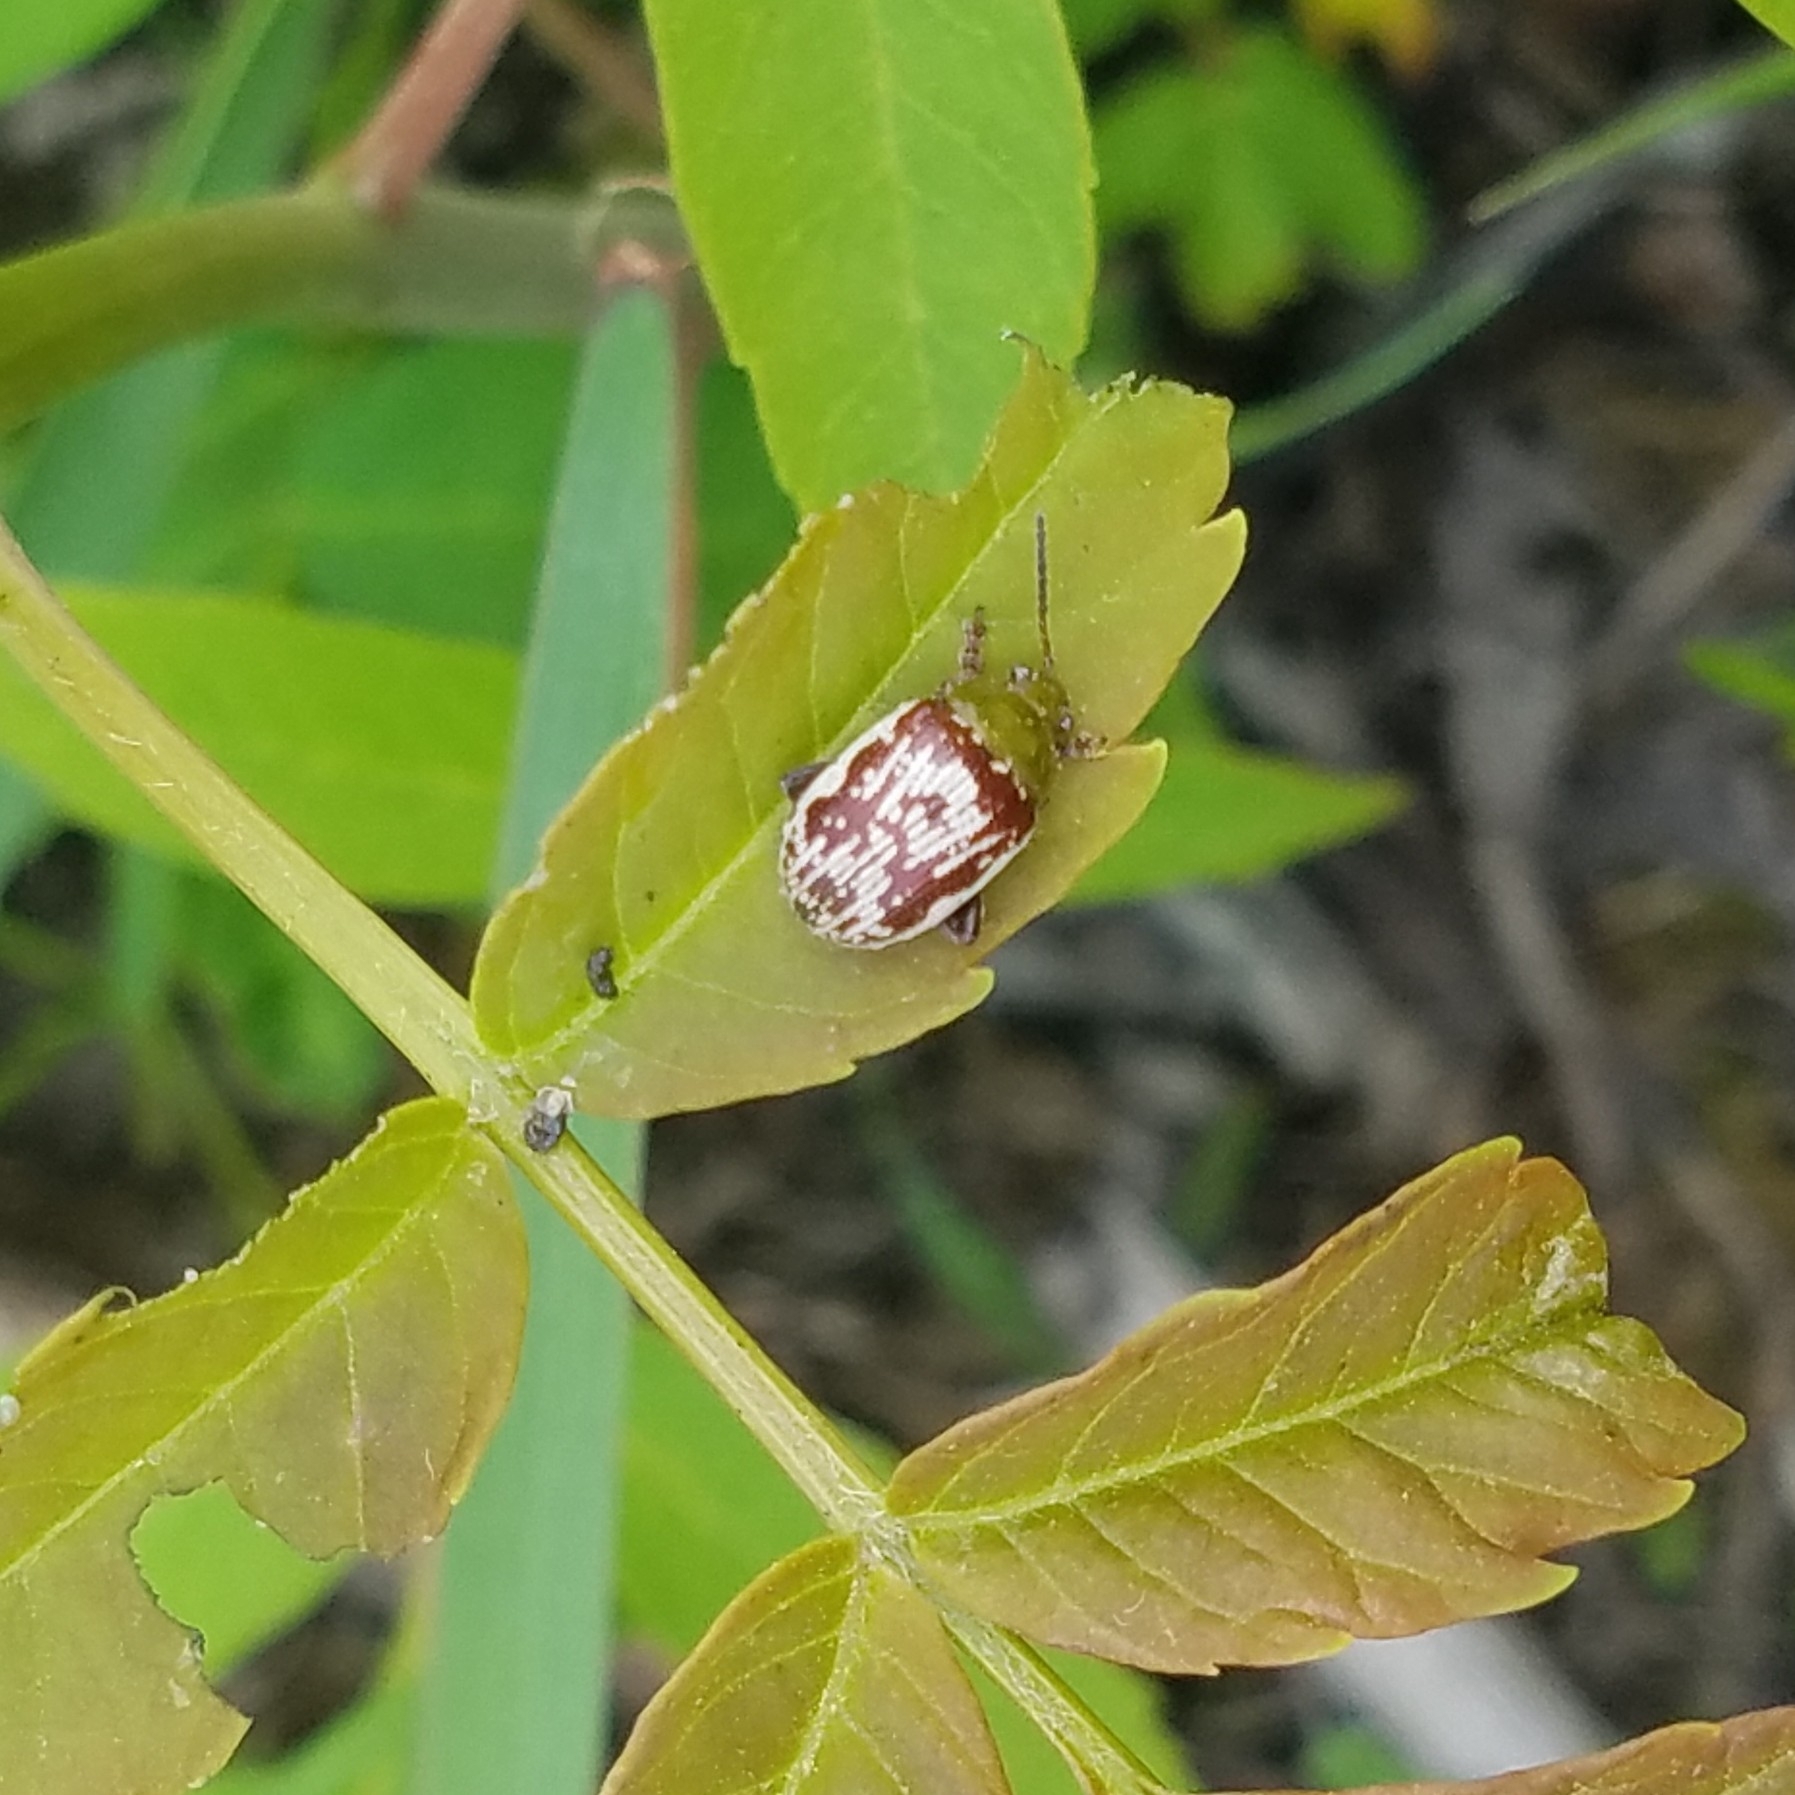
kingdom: Animalia
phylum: Arthropoda
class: Insecta
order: Coleoptera
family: Chrysomelidae
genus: Blepharida
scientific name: Blepharida rhois
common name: Sumac flea beetle
